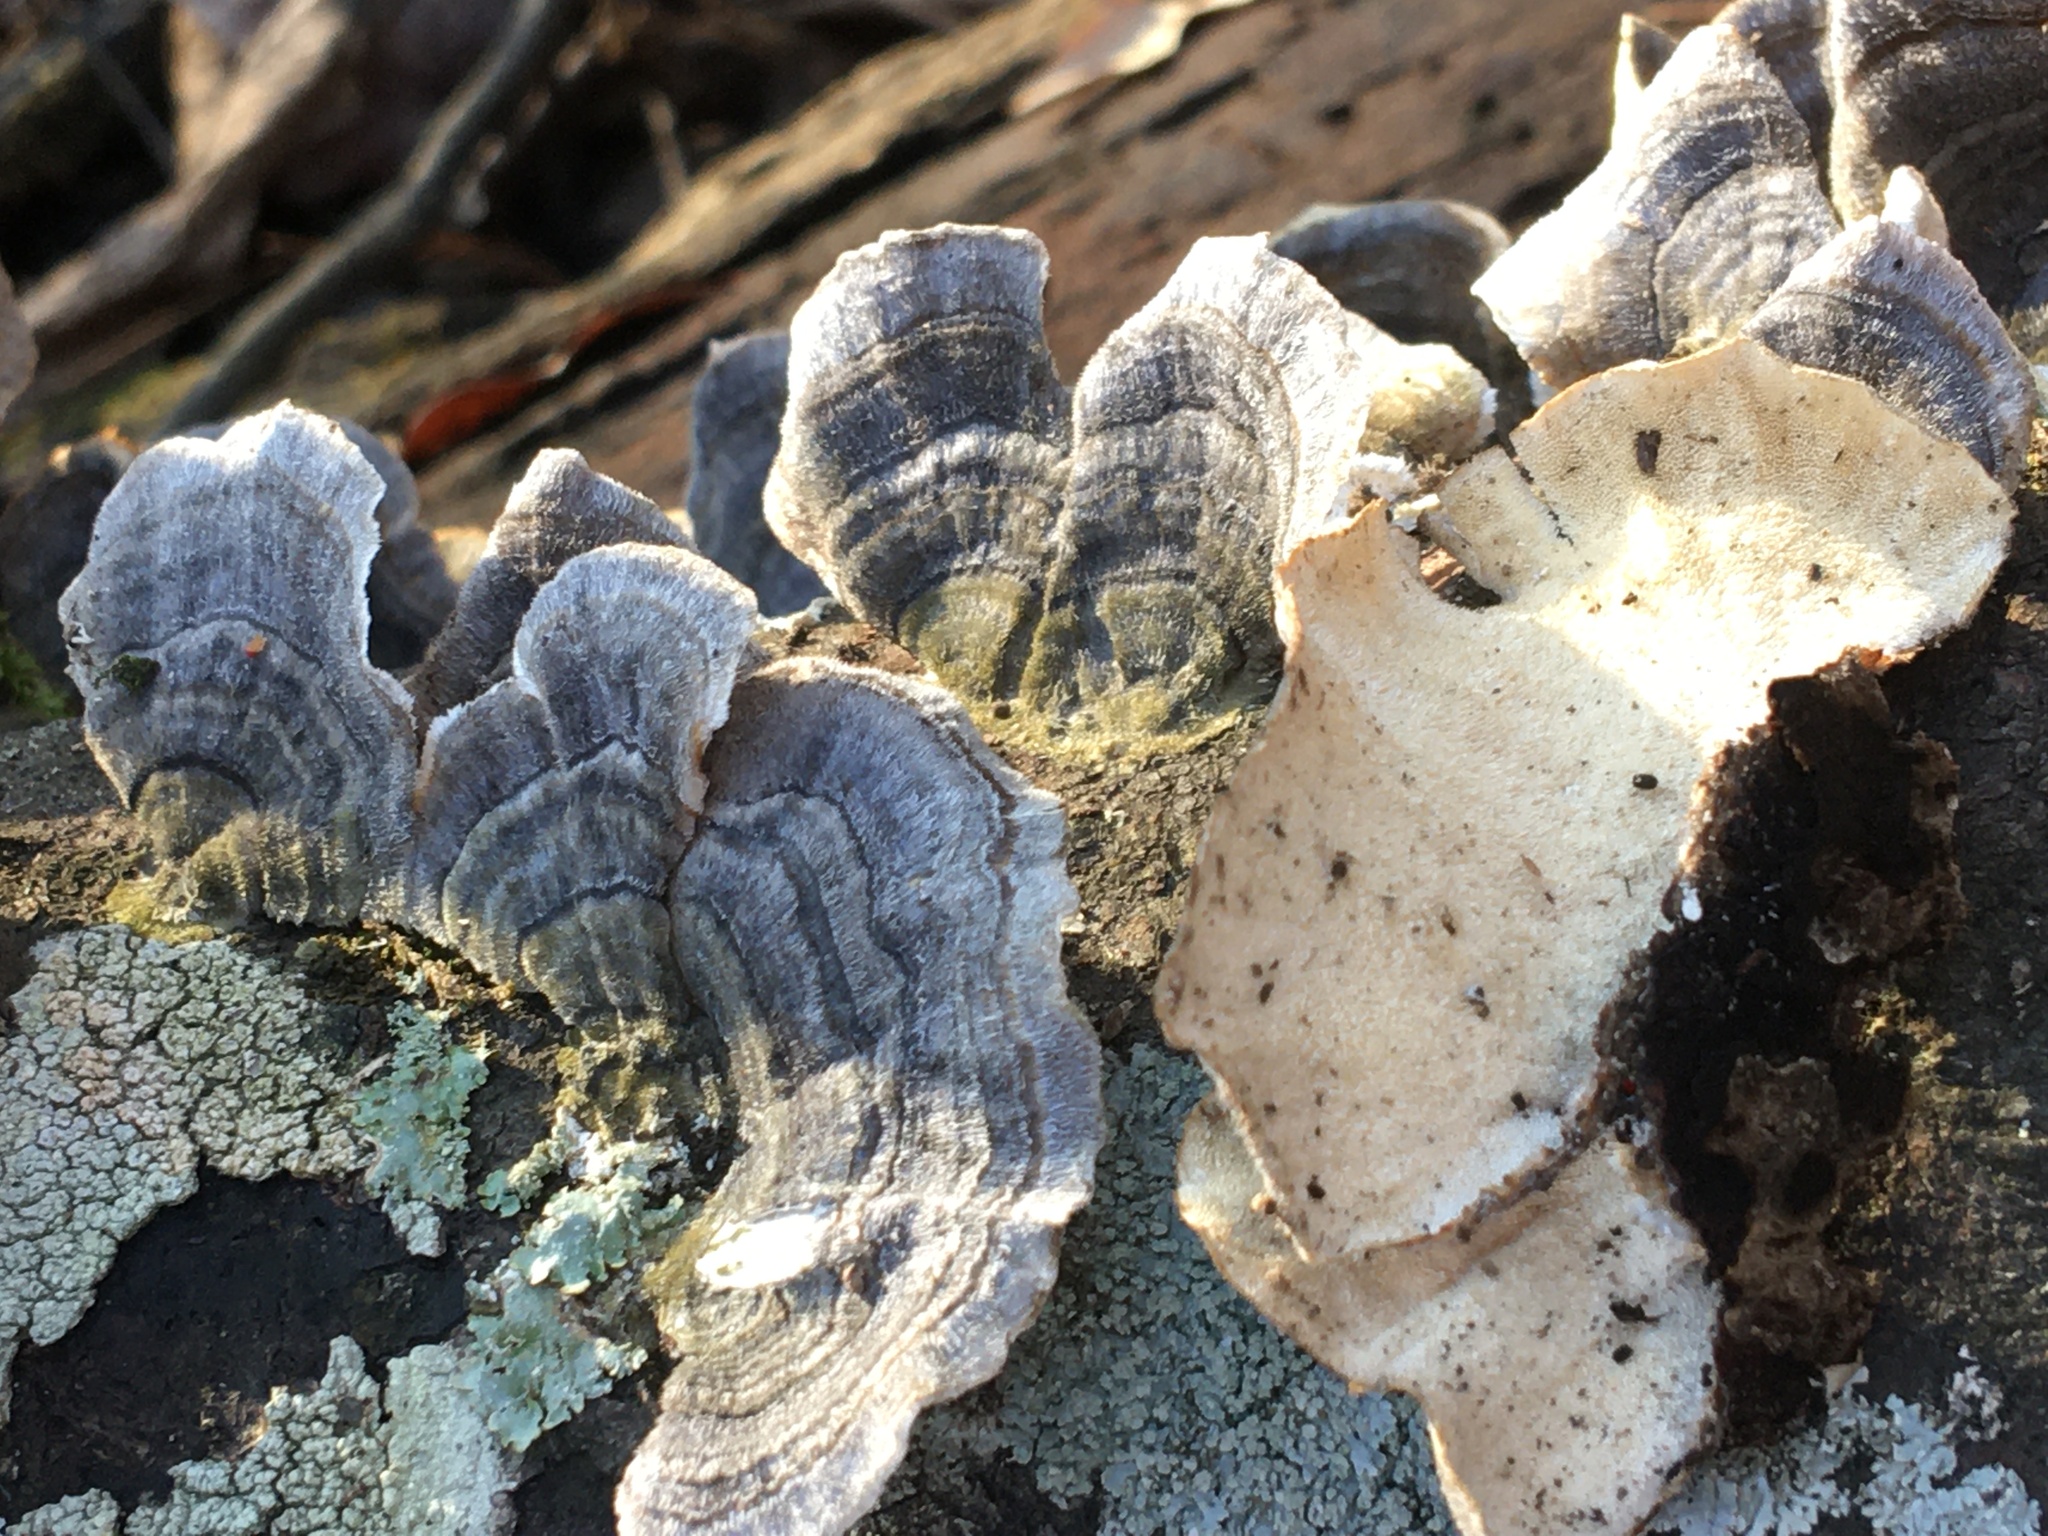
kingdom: Fungi
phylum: Basidiomycota
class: Agaricomycetes
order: Polyporales
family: Polyporaceae
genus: Trametes
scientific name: Trametes versicolor
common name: Turkeytail
